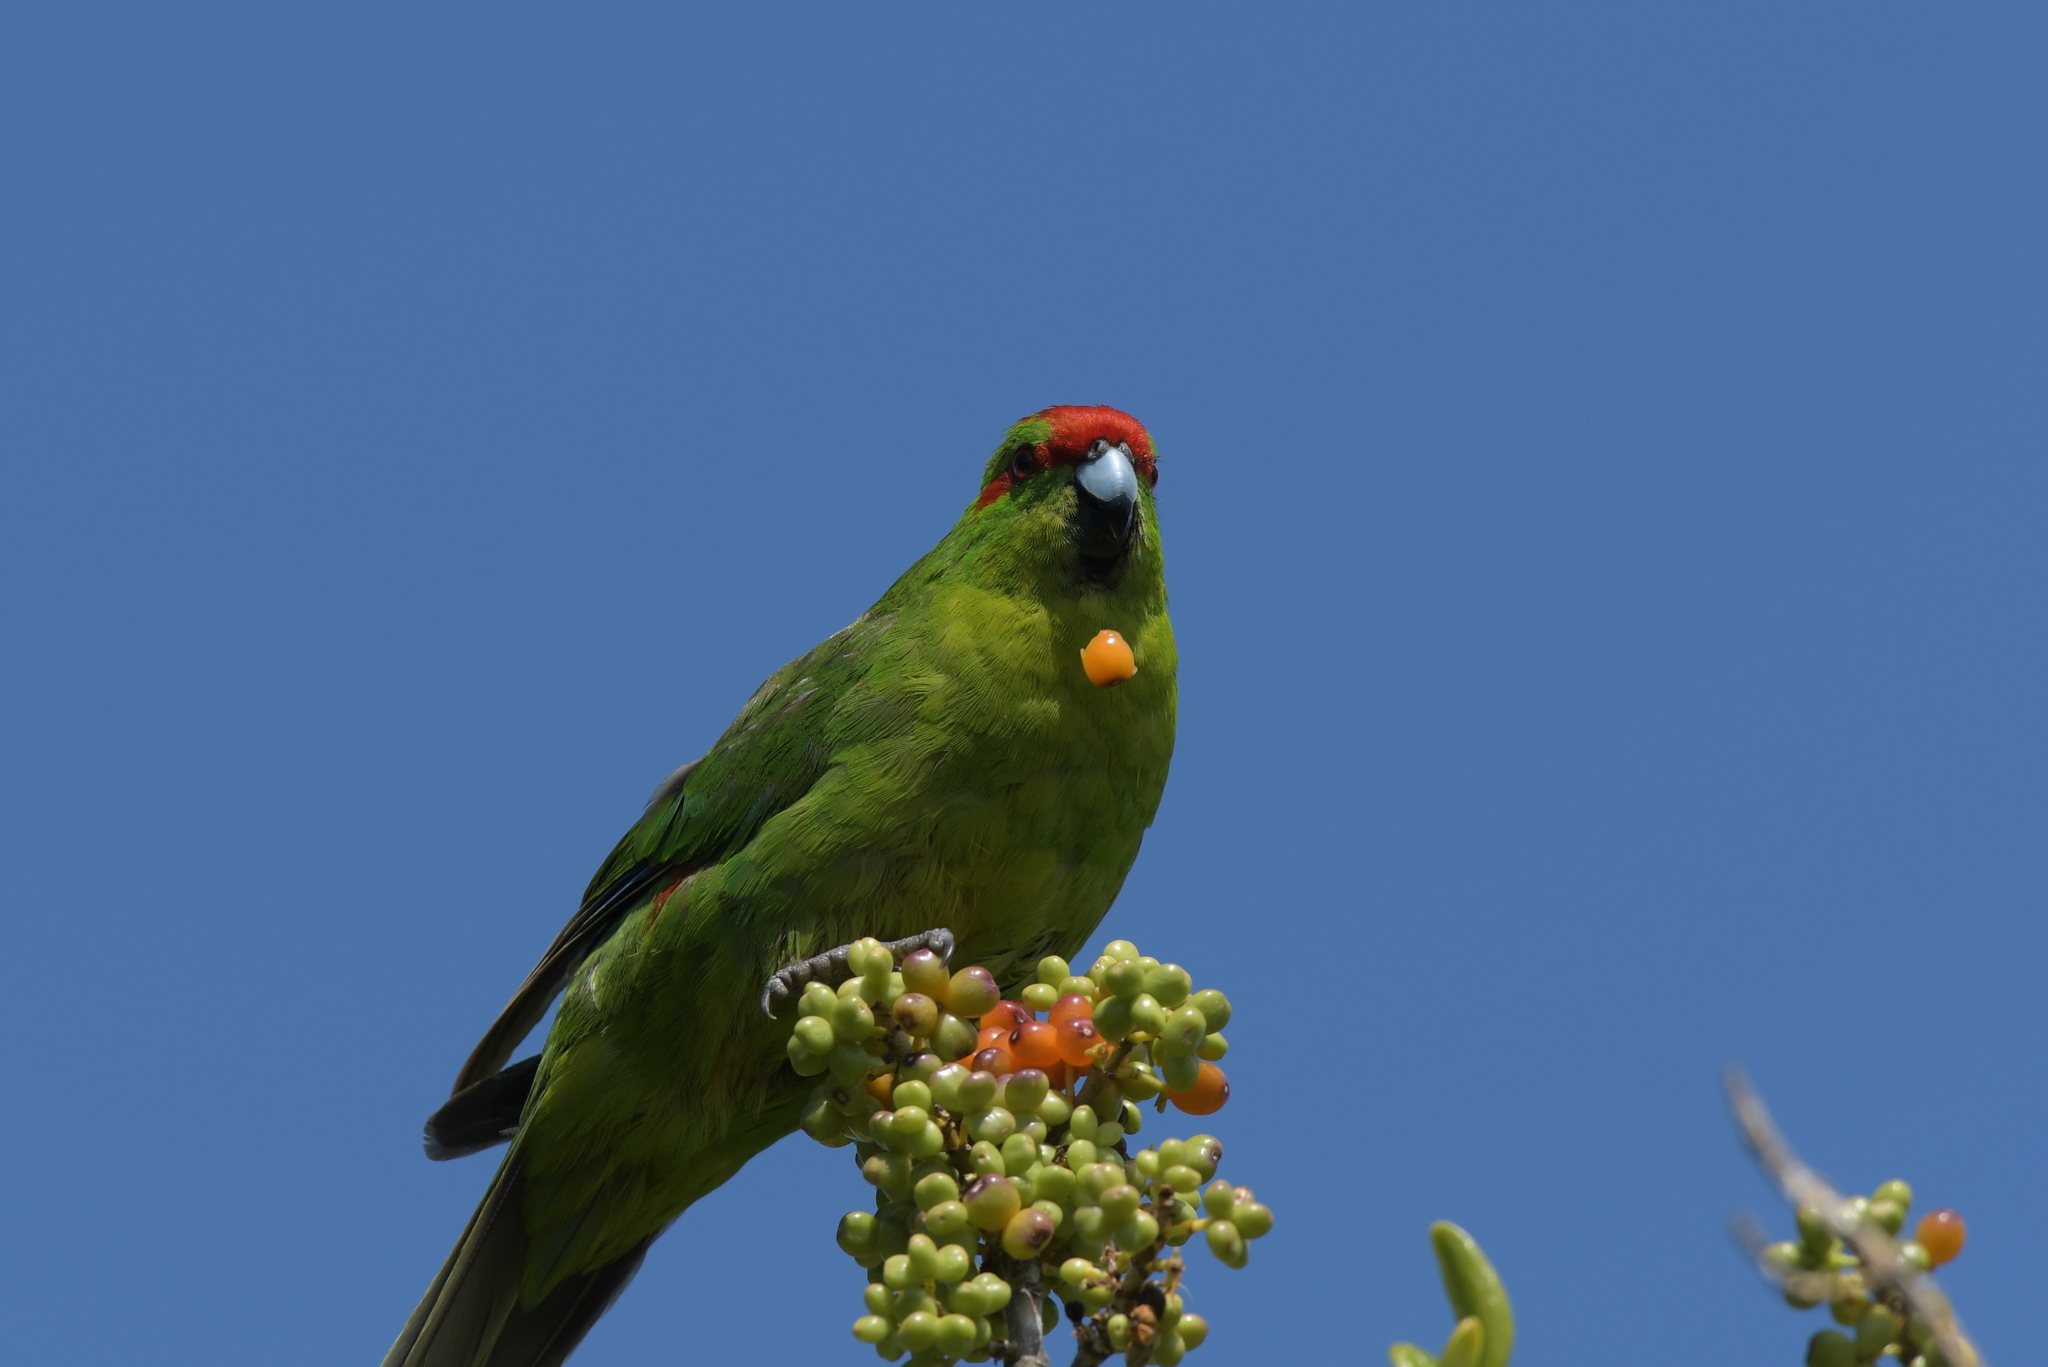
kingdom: Animalia
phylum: Chordata
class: Aves
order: Psittaciformes
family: Psittacidae
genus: Cyanoramphus
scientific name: Cyanoramphus novaezelandiae
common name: Red-fronted parakeet
